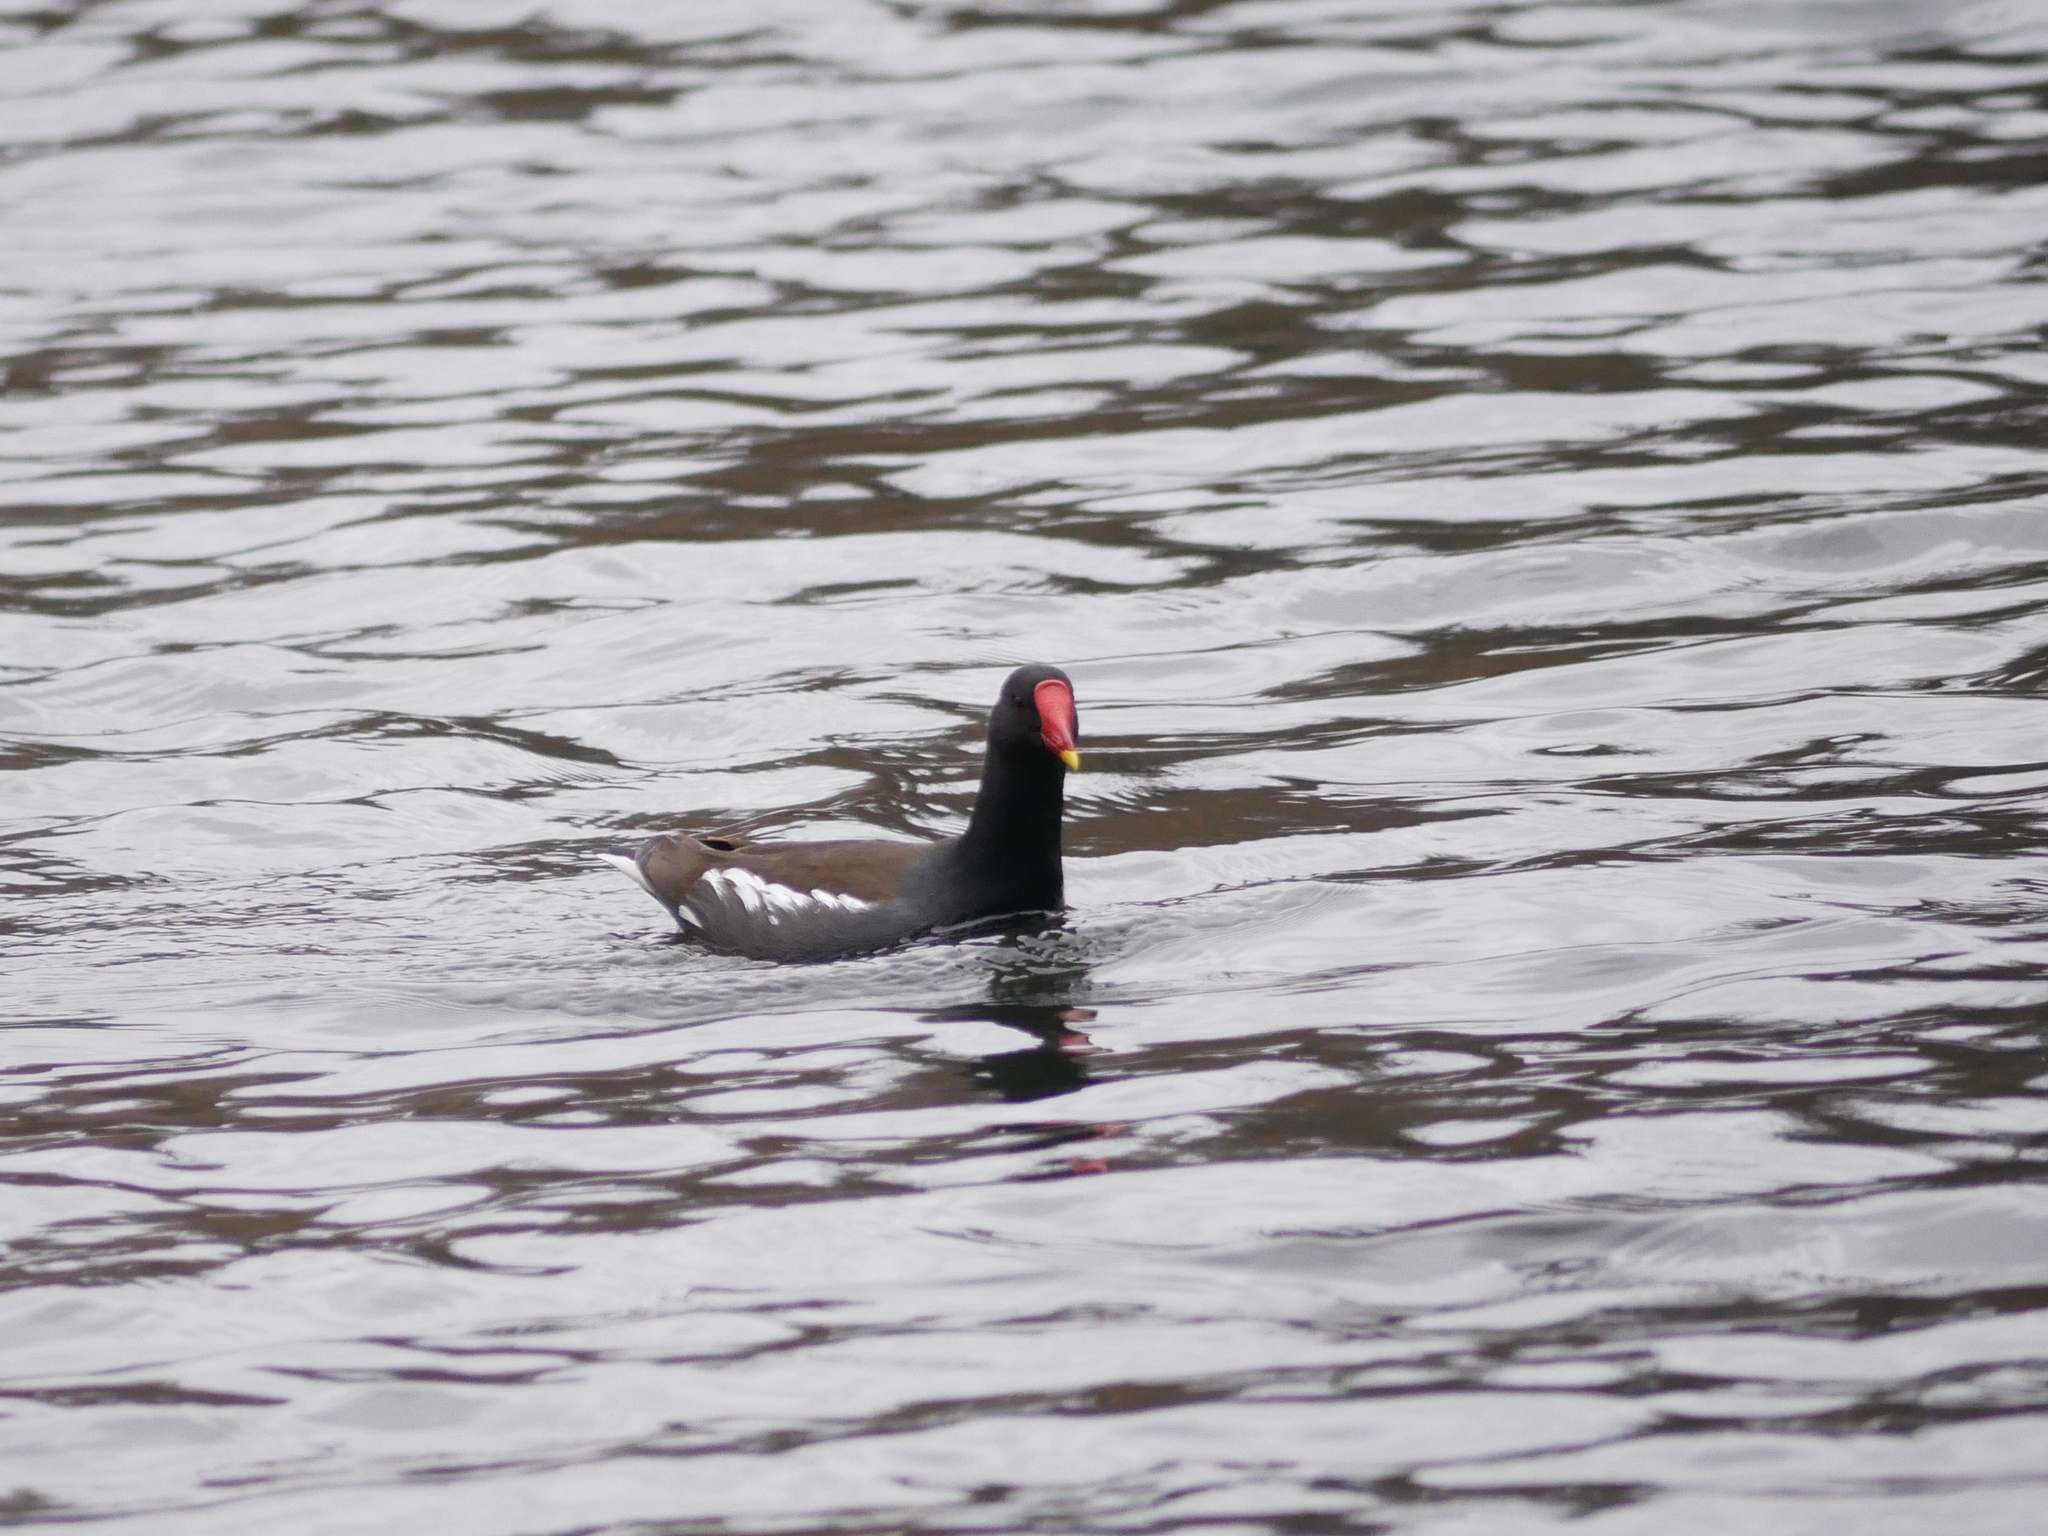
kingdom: Animalia
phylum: Chordata
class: Aves
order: Gruiformes
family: Rallidae
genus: Gallinula
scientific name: Gallinula chloropus
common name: Common moorhen
